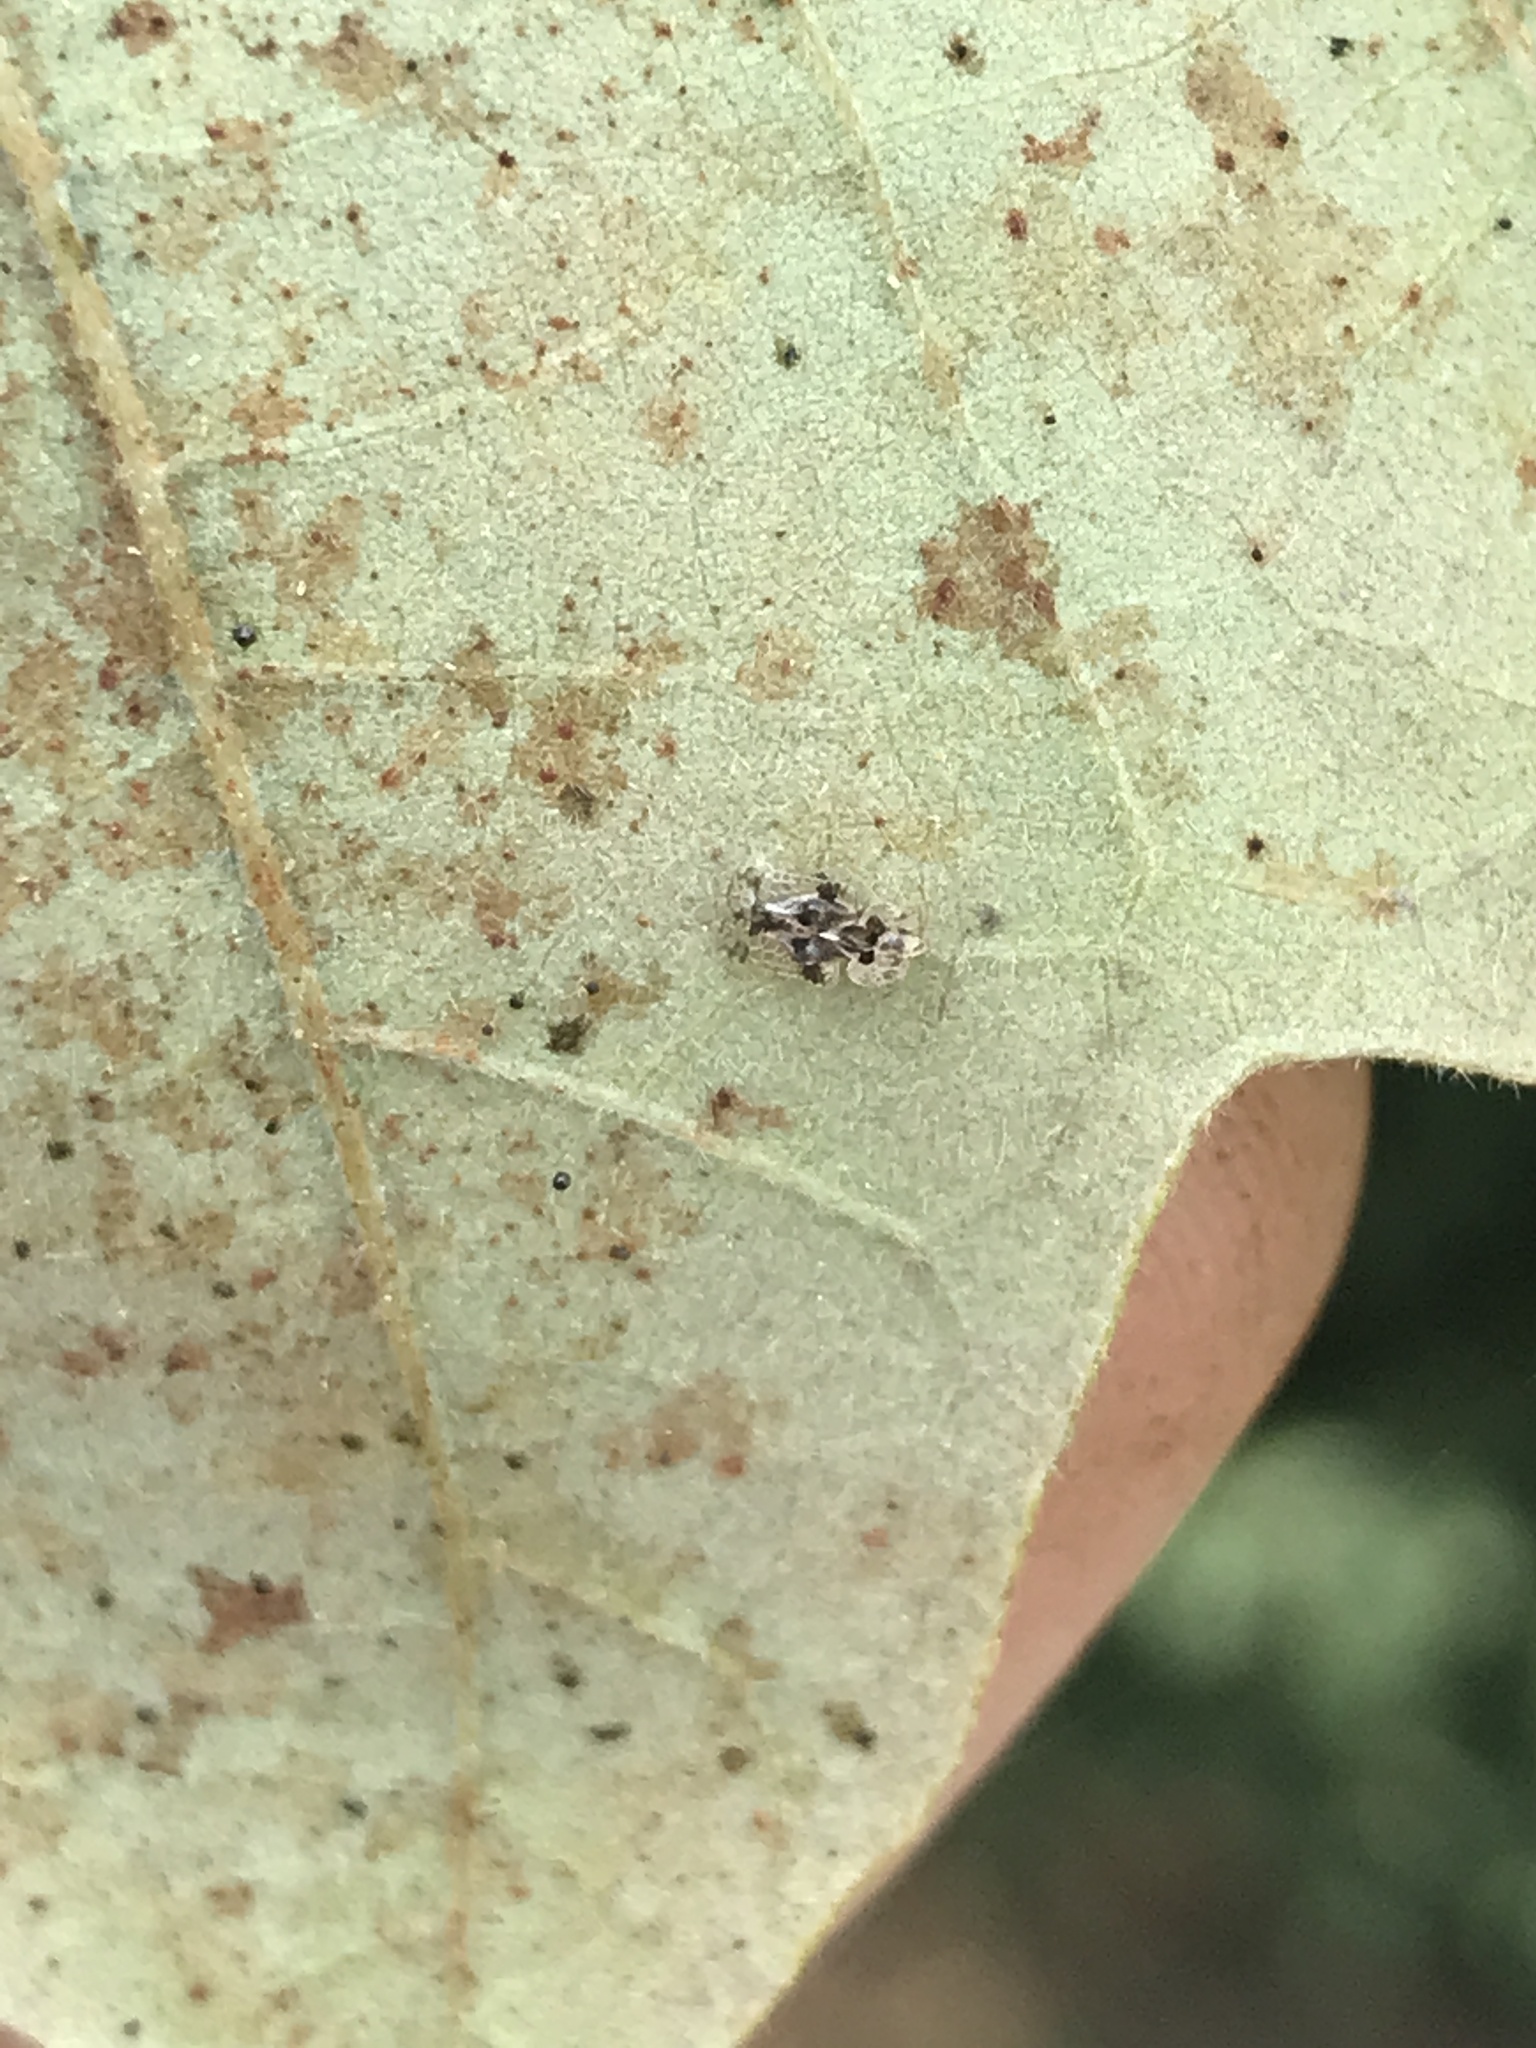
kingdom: Animalia
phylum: Arthropoda
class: Insecta
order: Hemiptera
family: Tingidae
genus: Corythucha
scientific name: Corythucha arcuata
